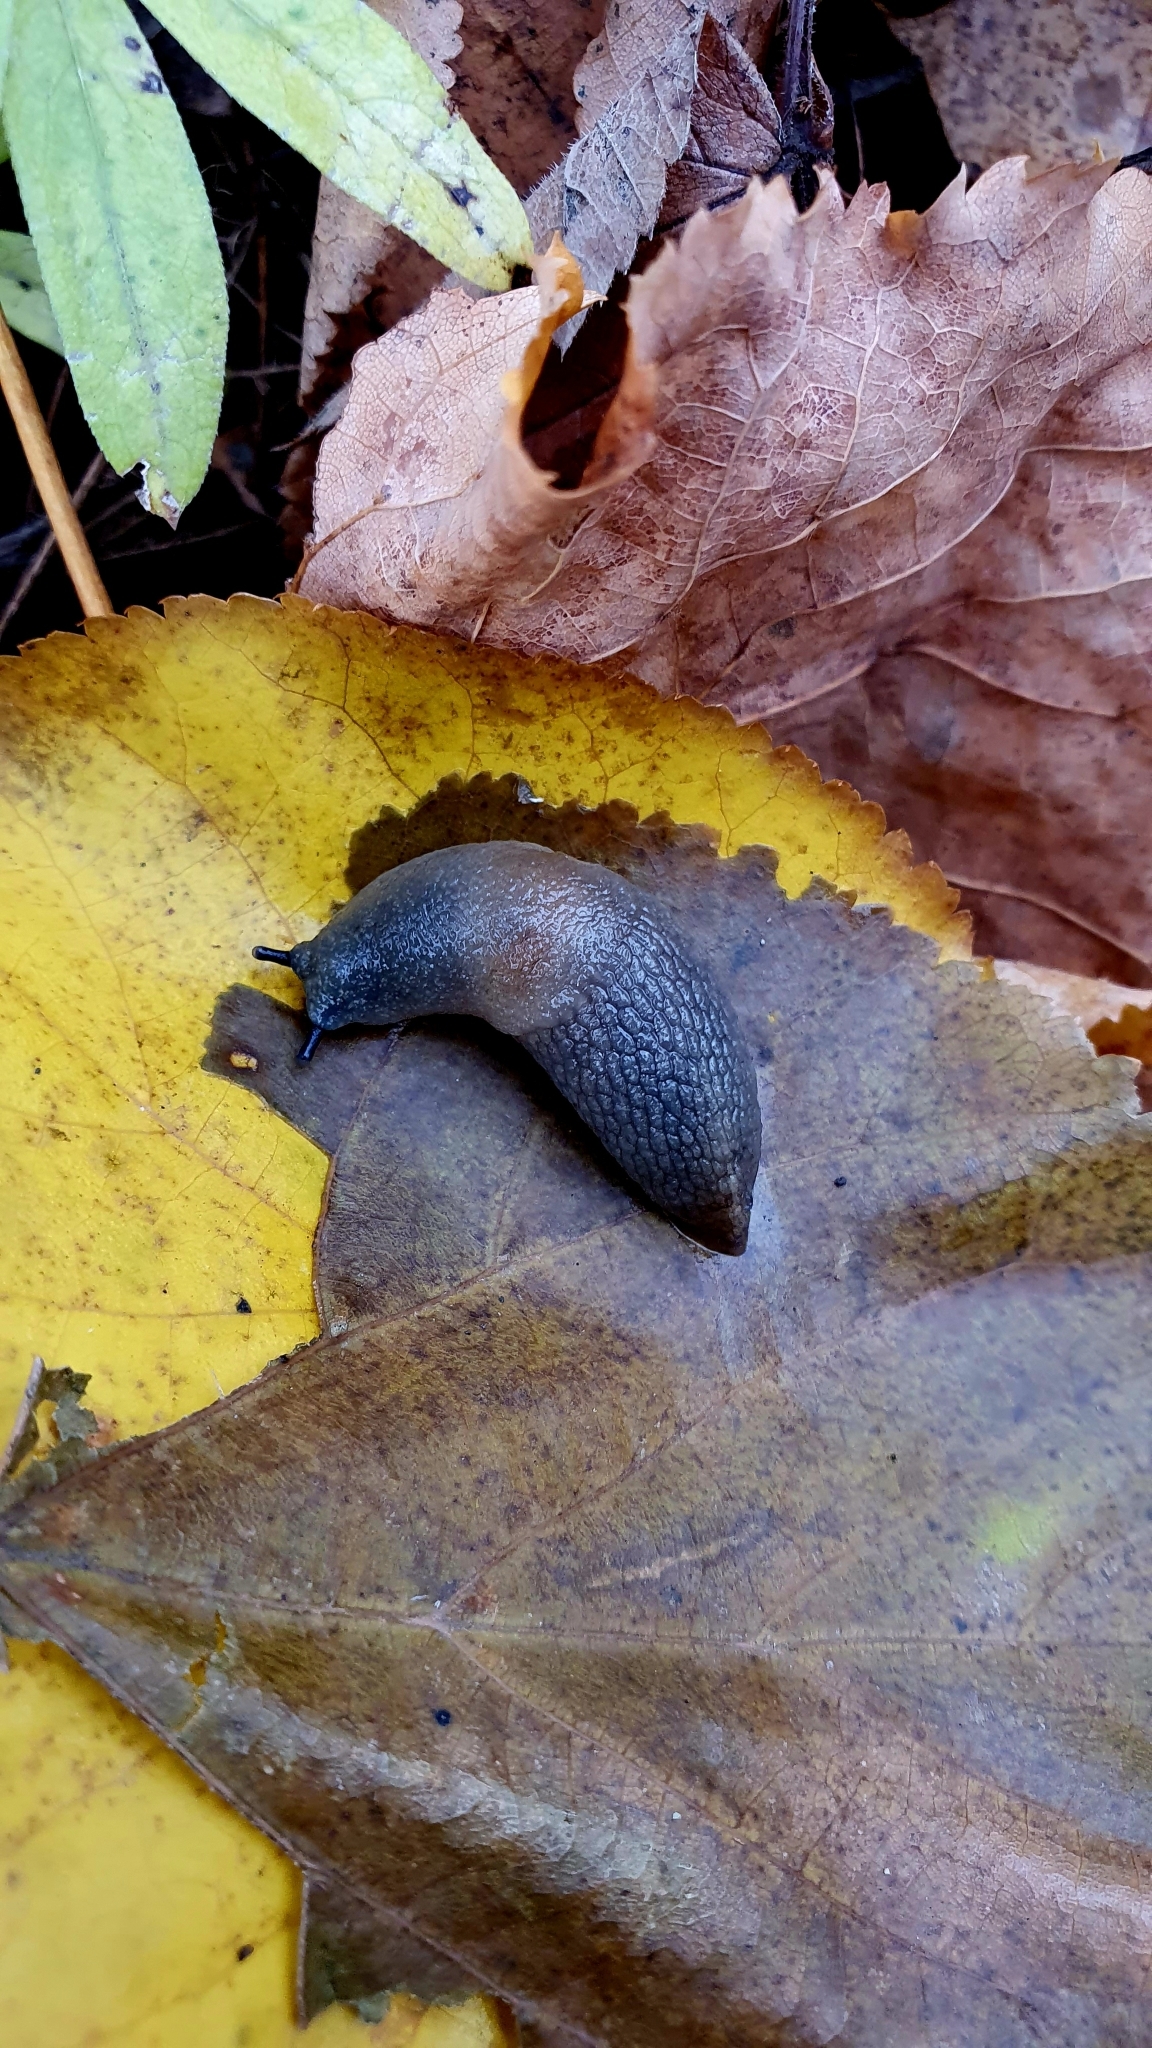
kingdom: Animalia
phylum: Mollusca
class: Gastropoda
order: Stylommatophora
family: Agriolimacidae
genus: Krynickillus
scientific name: Krynickillus melanocephalus
